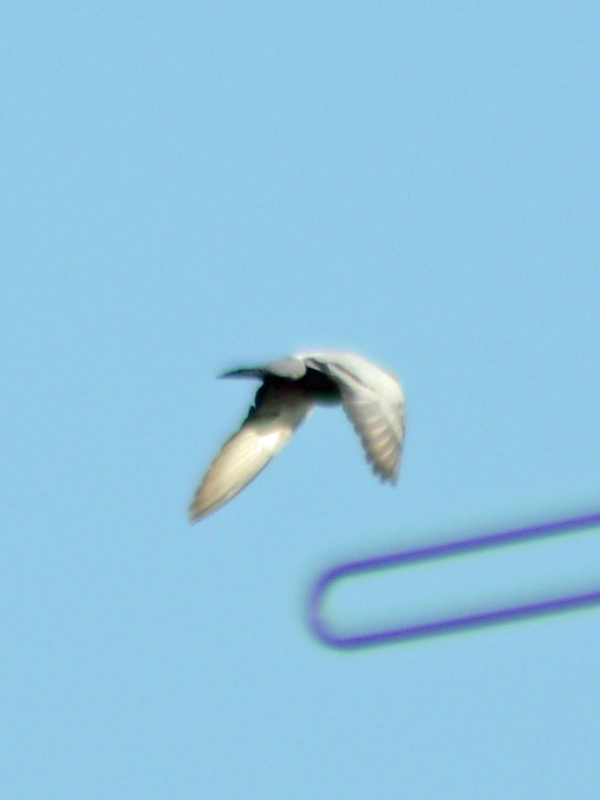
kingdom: Animalia
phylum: Chordata
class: Aves
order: Columbiformes
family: Columbidae
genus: Columba
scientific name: Columba livia
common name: Rock pigeon
